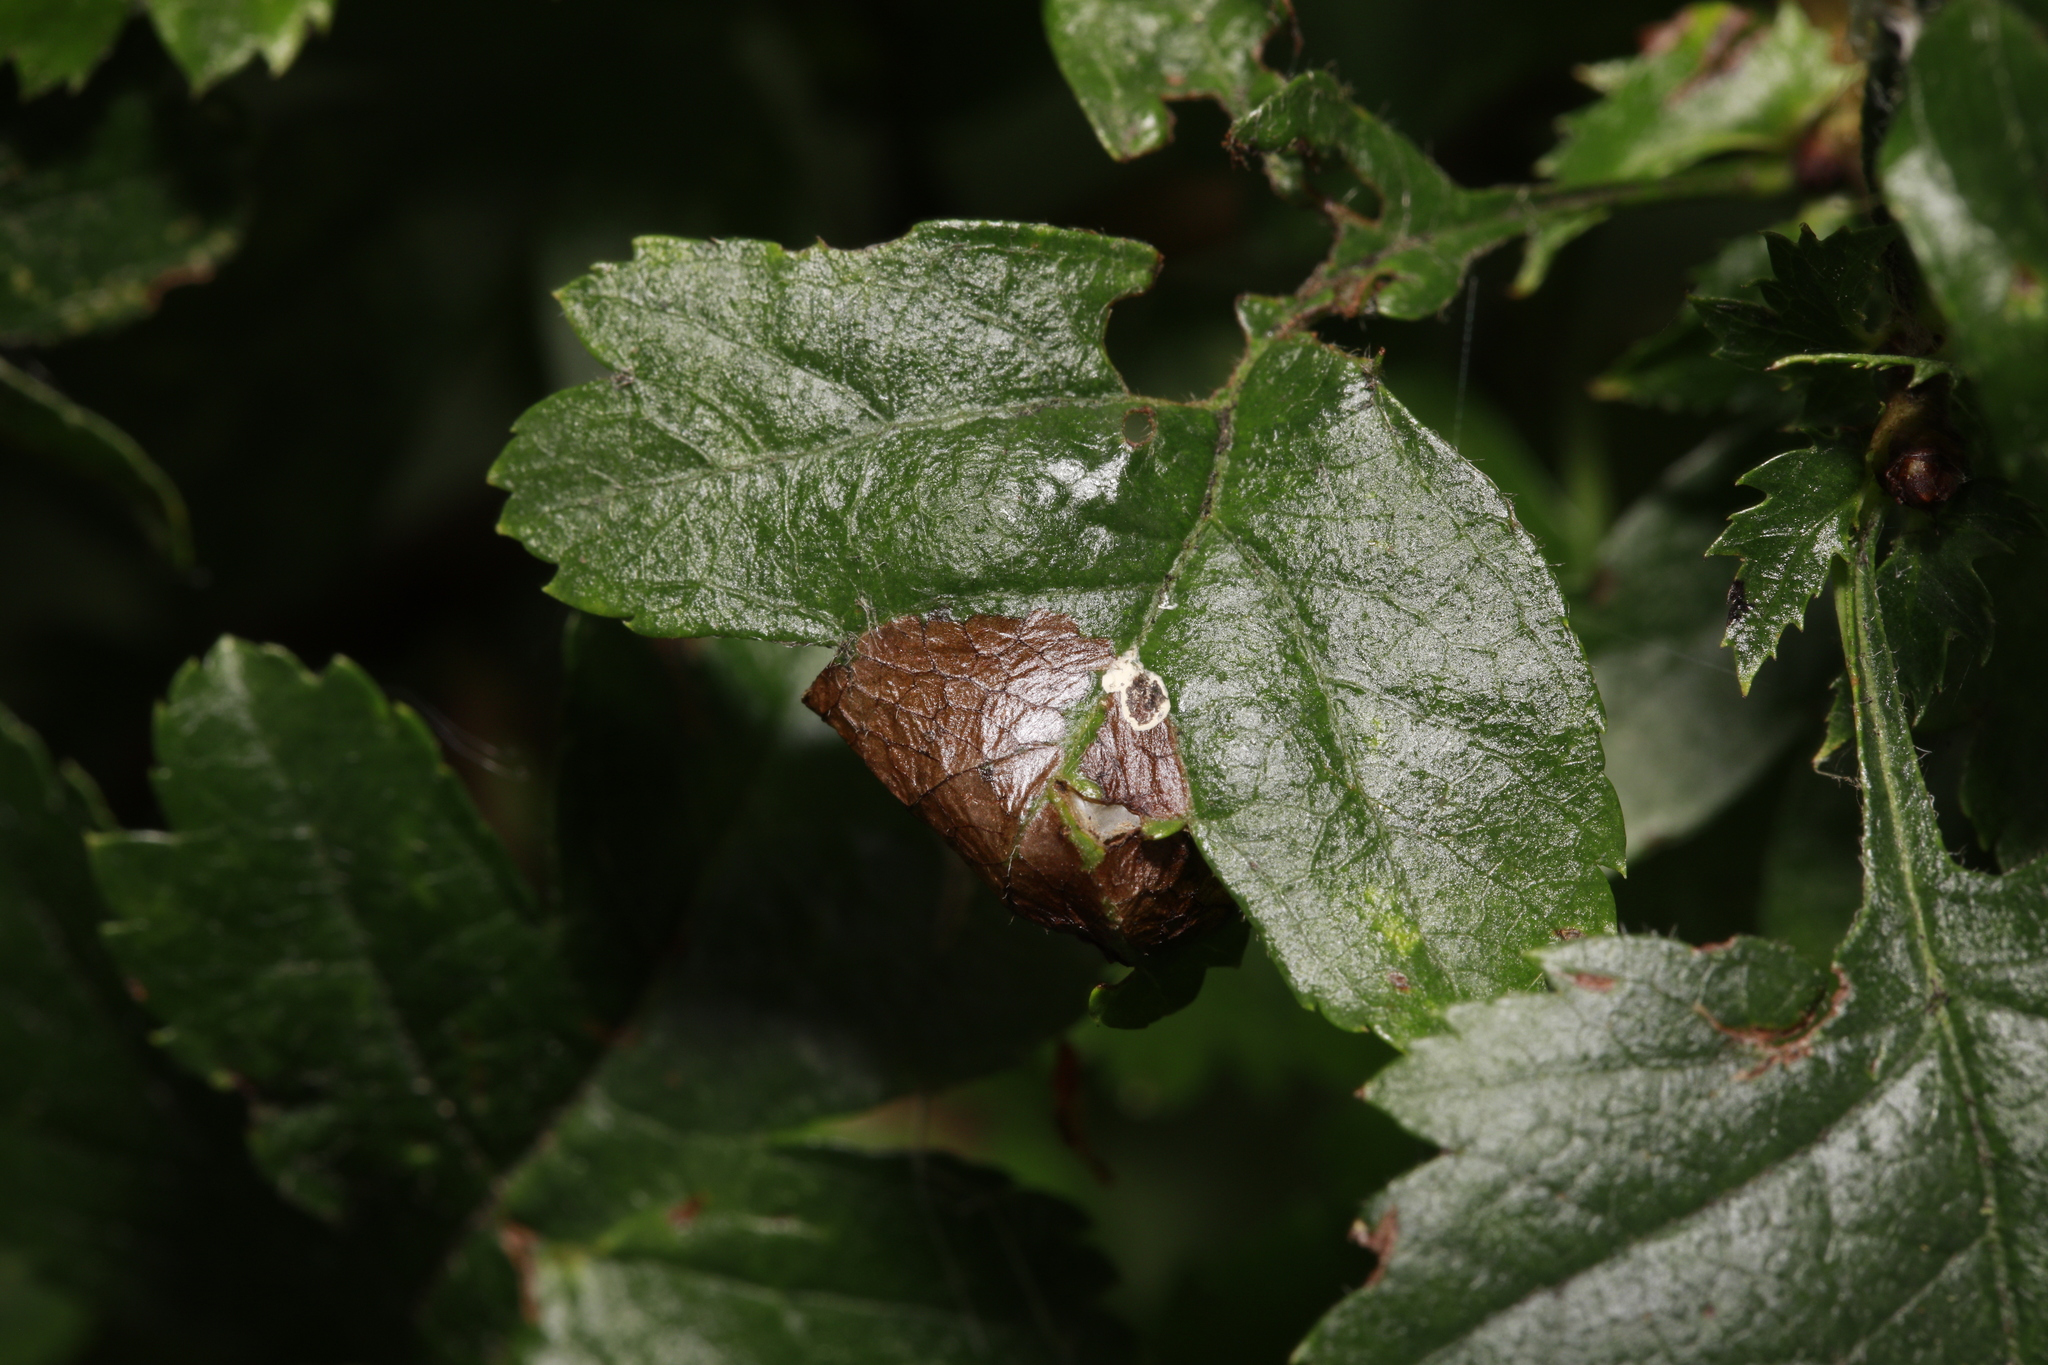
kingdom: Animalia
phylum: Arthropoda
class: Insecta
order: Lepidoptera
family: Gracillariidae
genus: Parornix
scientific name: Parornix anglicella
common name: Hawthorn slender
